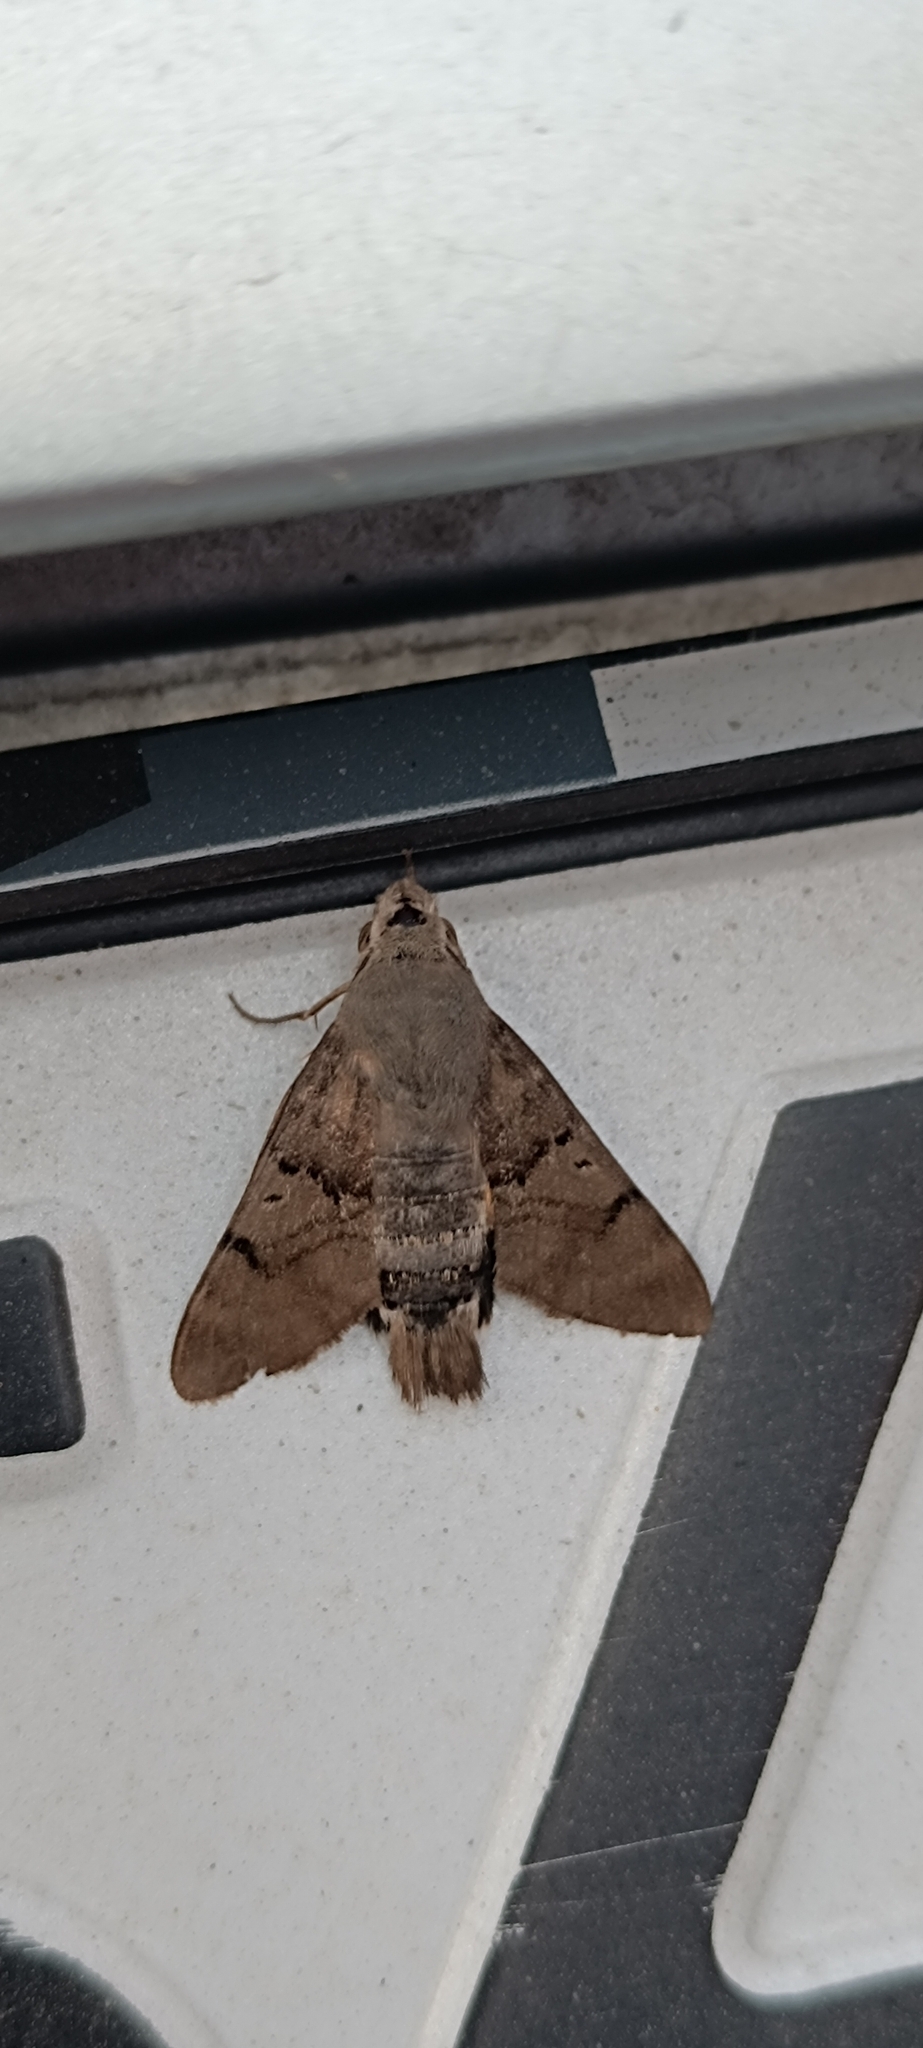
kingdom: Animalia
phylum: Arthropoda
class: Insecta
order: Lepidoptera
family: Sphingidae
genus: Macroglossum
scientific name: Macroglossum stellatarum
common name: Humming-bird hawk-moth
